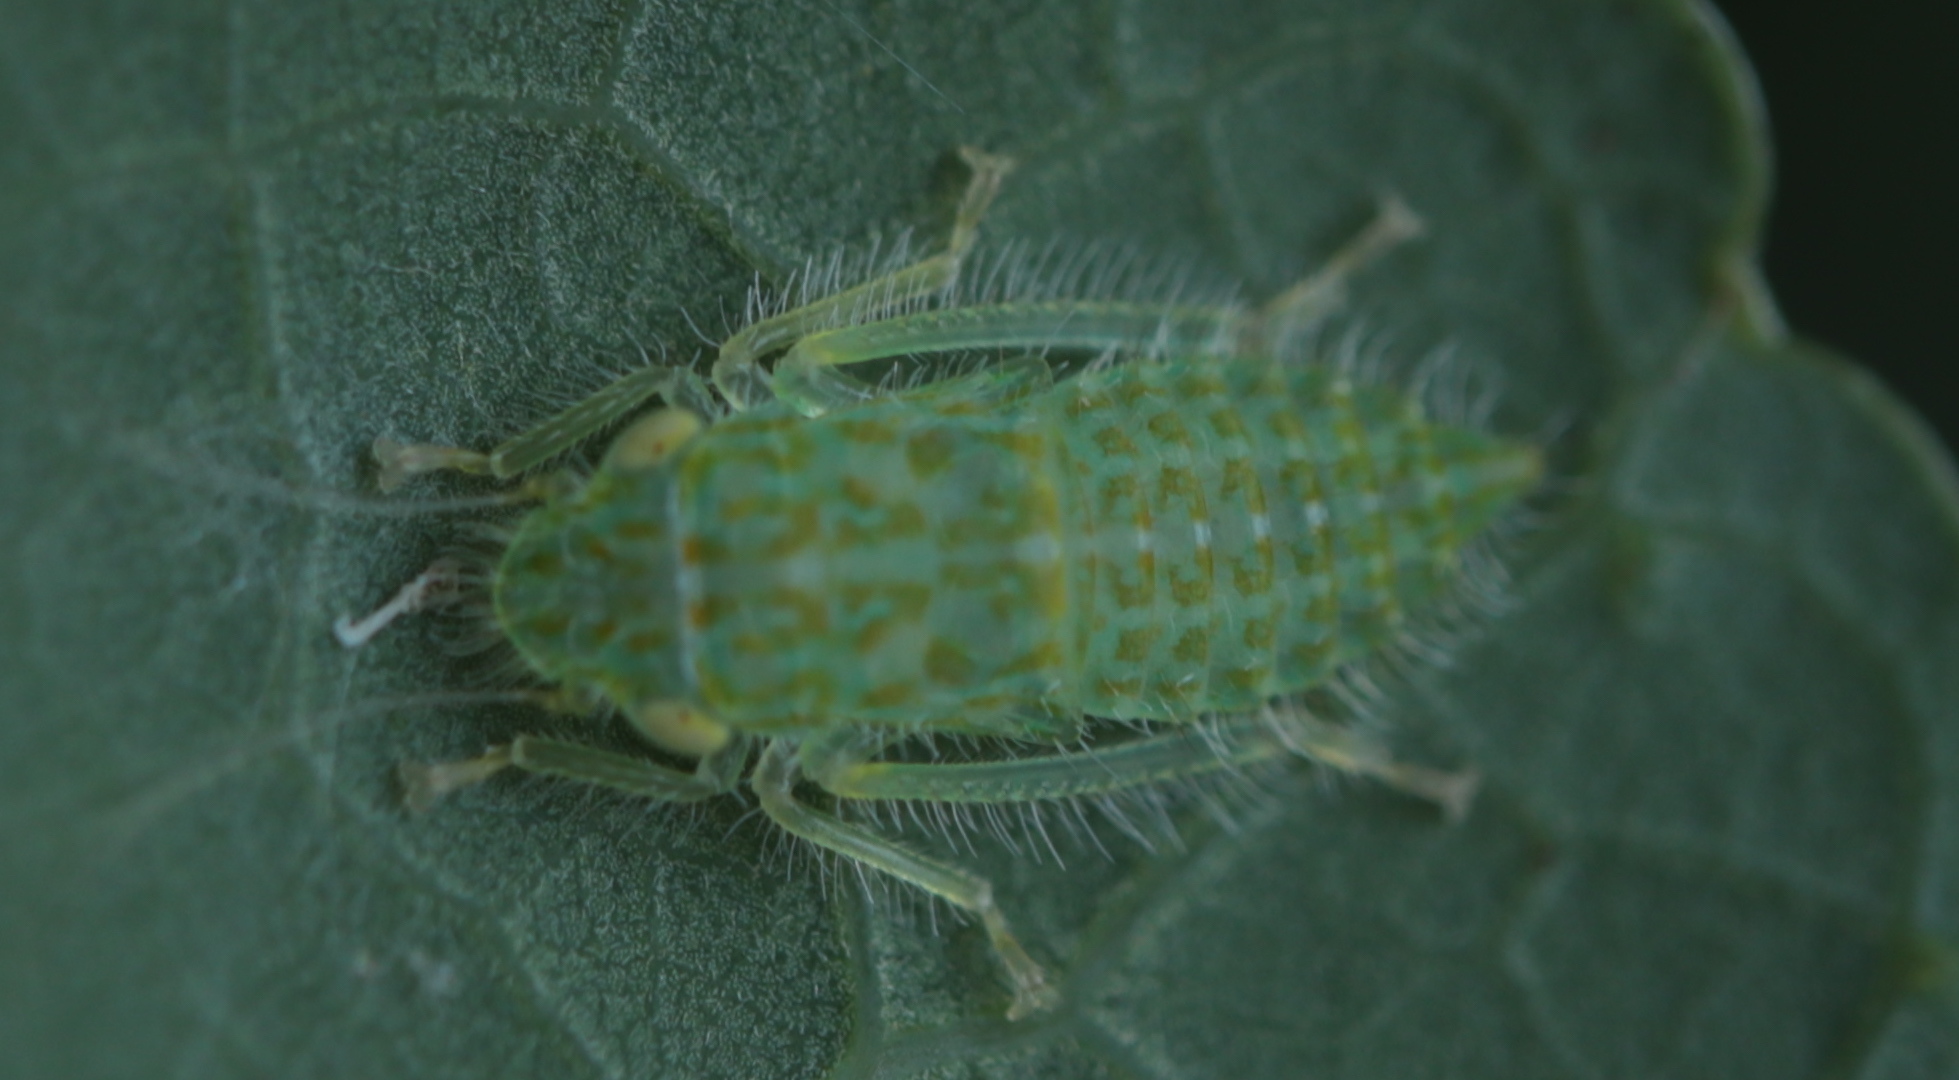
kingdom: Animalia
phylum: Arthropoda
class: Insecta
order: Hemiptera
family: Cicadellidae
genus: Rugosana
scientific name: Rugosana querci
